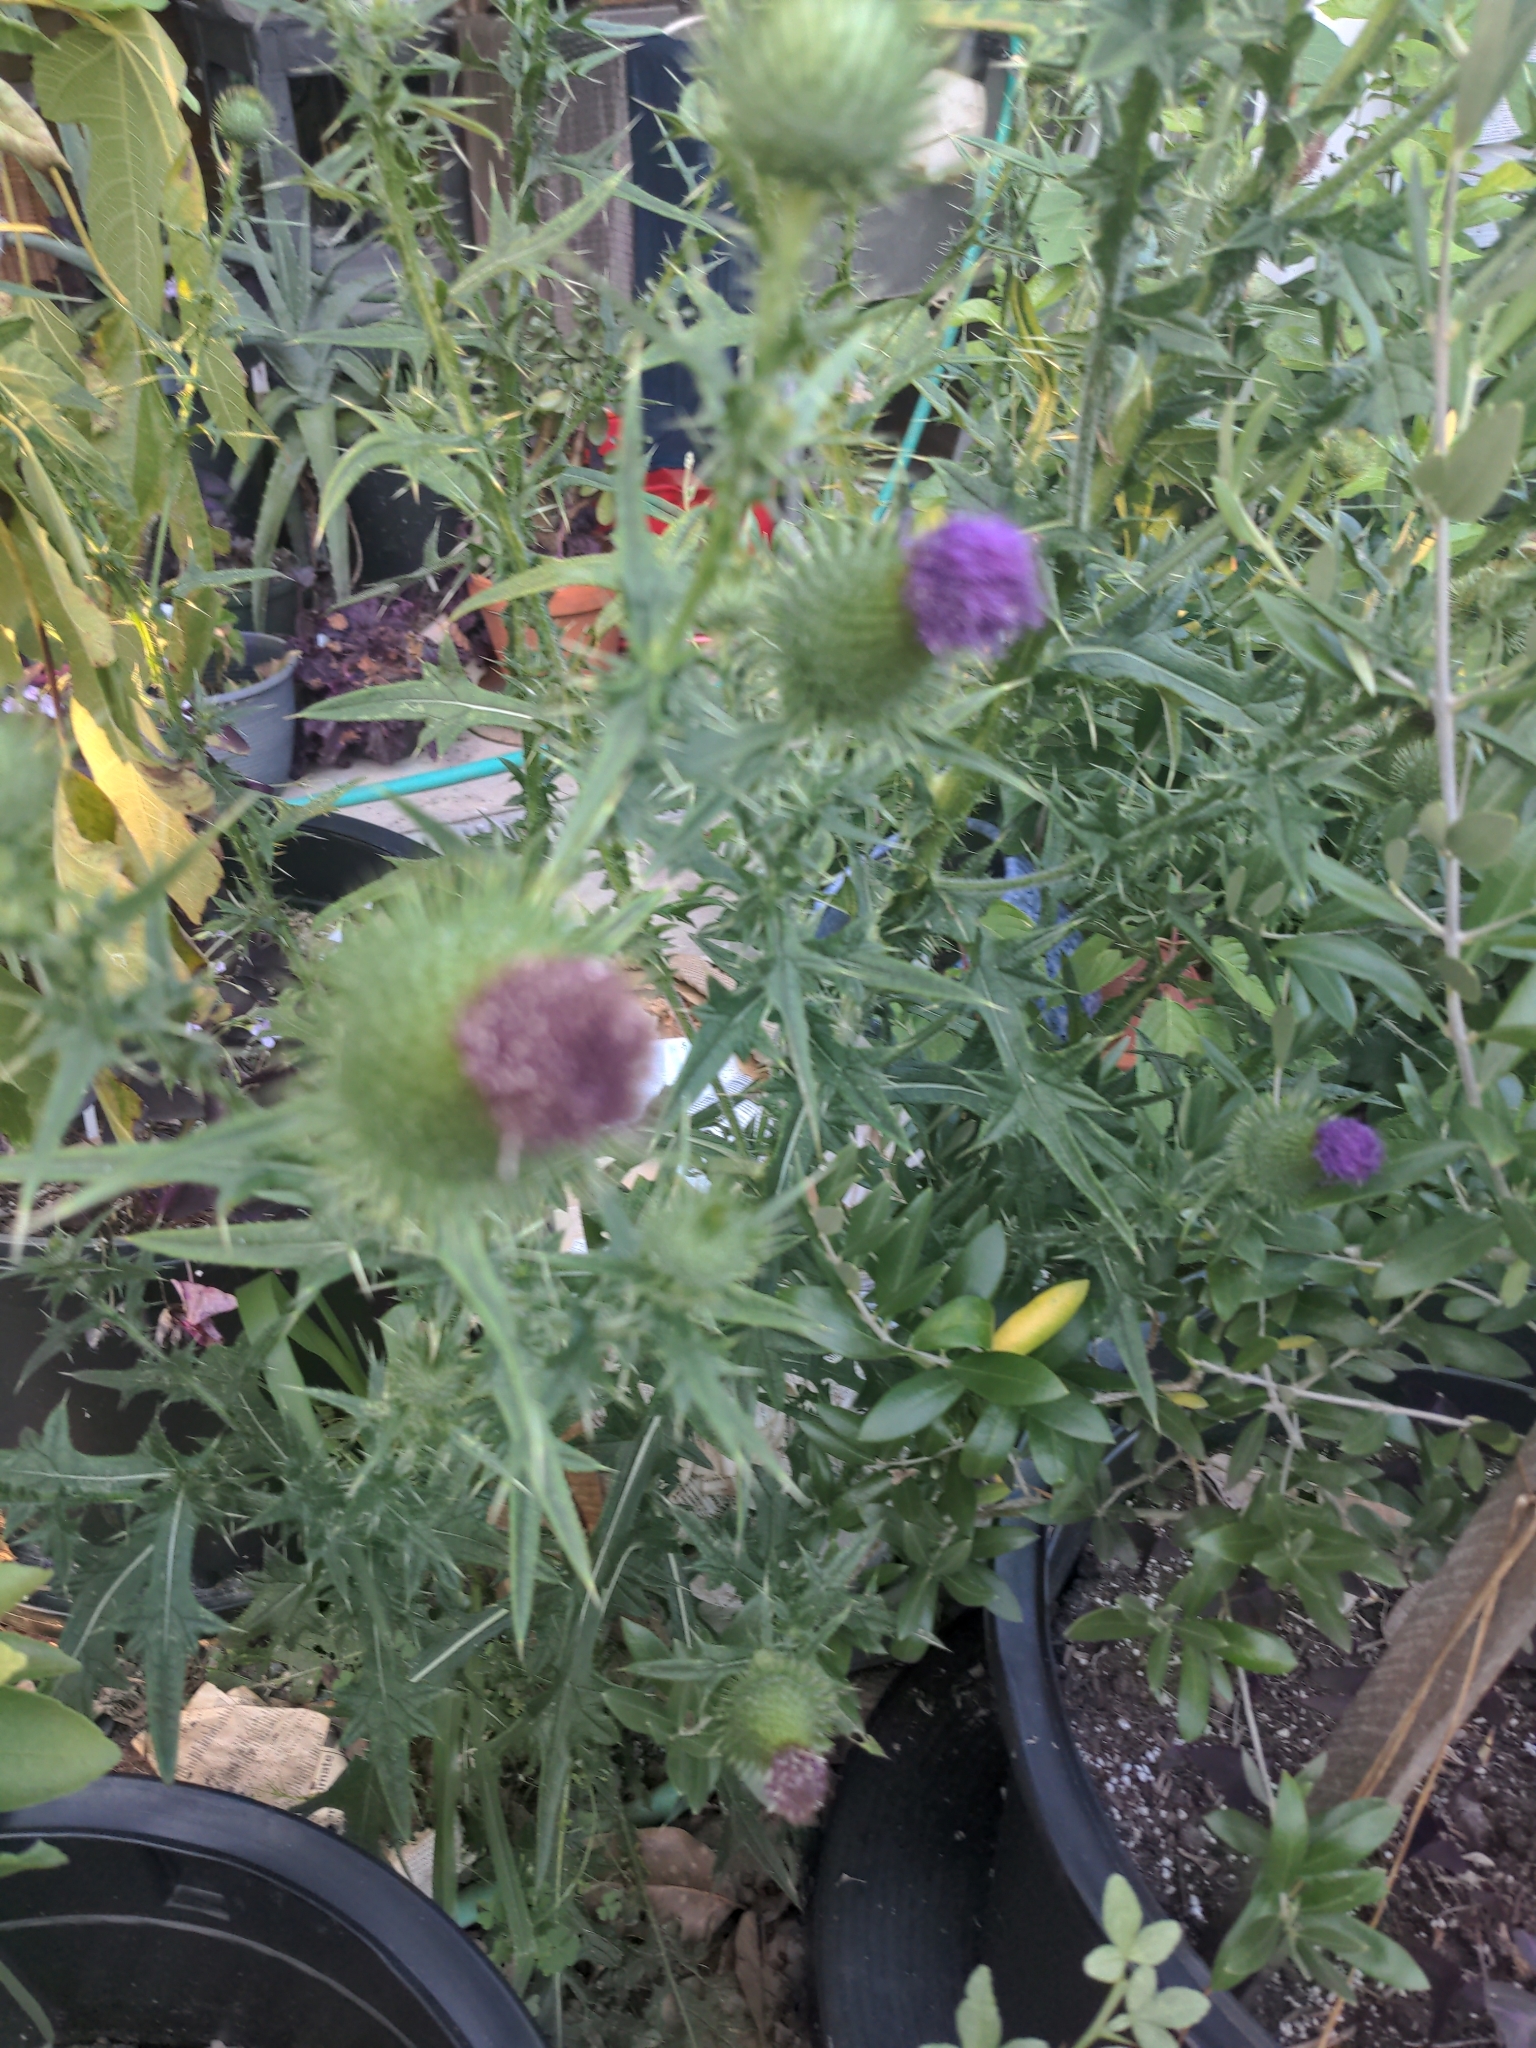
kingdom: Plantae
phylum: Tracheophyta
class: Magnoliopsida
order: Asterales
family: Asteraceae
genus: Cirsium
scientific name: Cirsium vulgare
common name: Bull thistle
